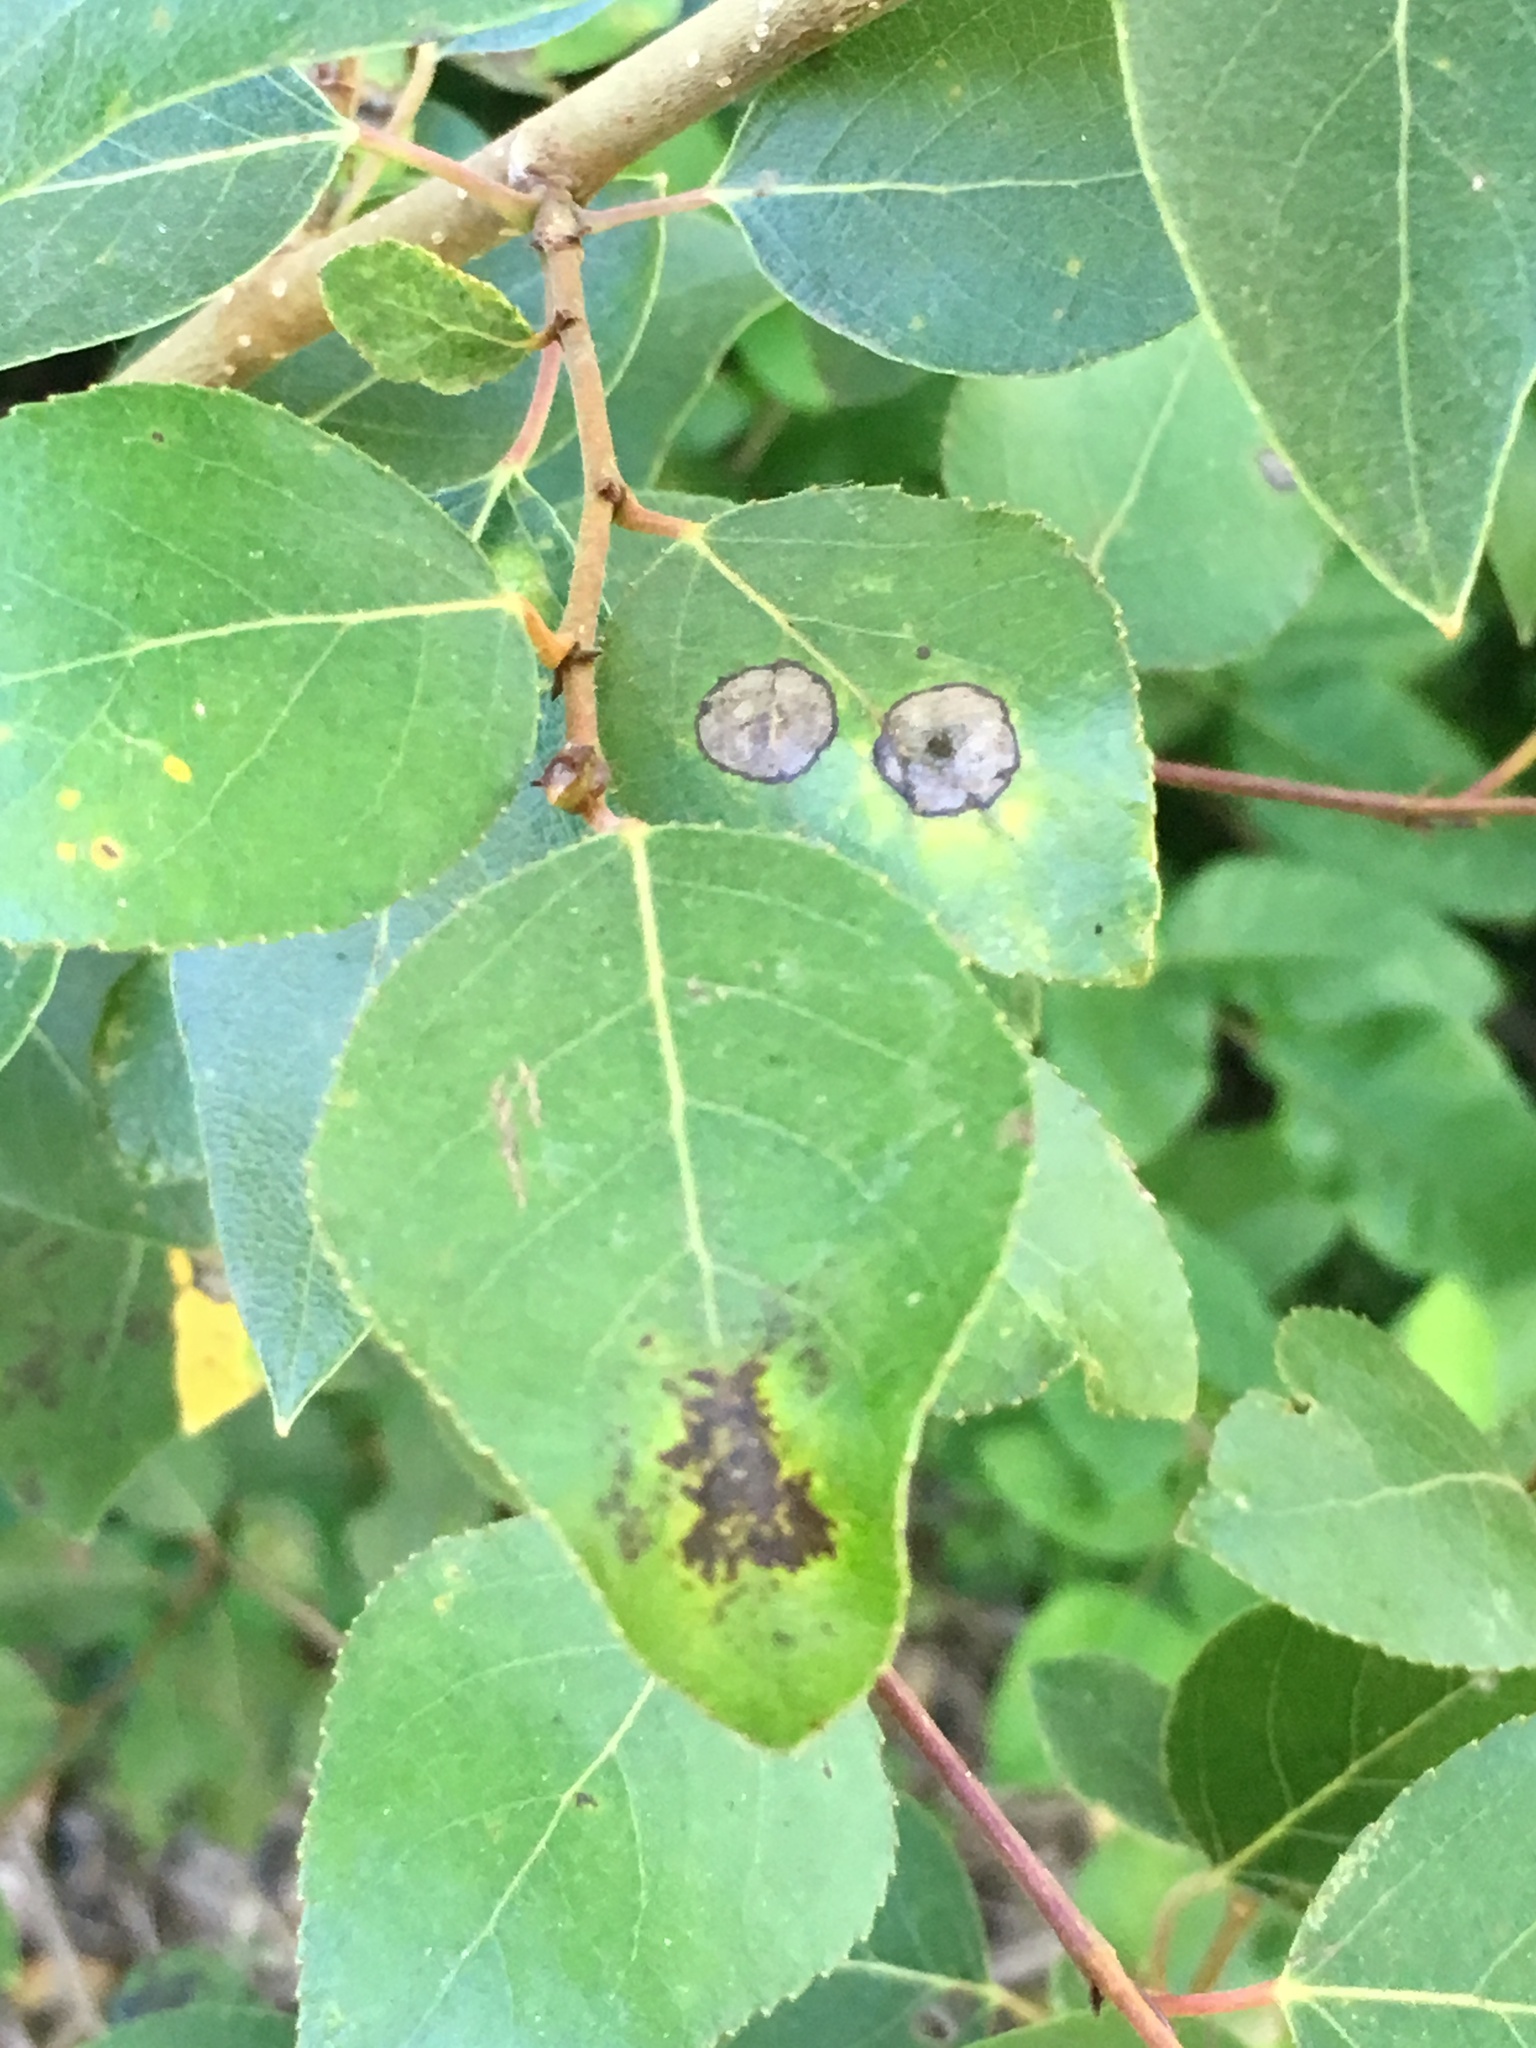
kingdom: Plantae
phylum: Tracheophyta
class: Magnoliopsida
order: Malpighiales
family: Salicaceae
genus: Populus
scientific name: Populus trichocarpa
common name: Black cottonwood
